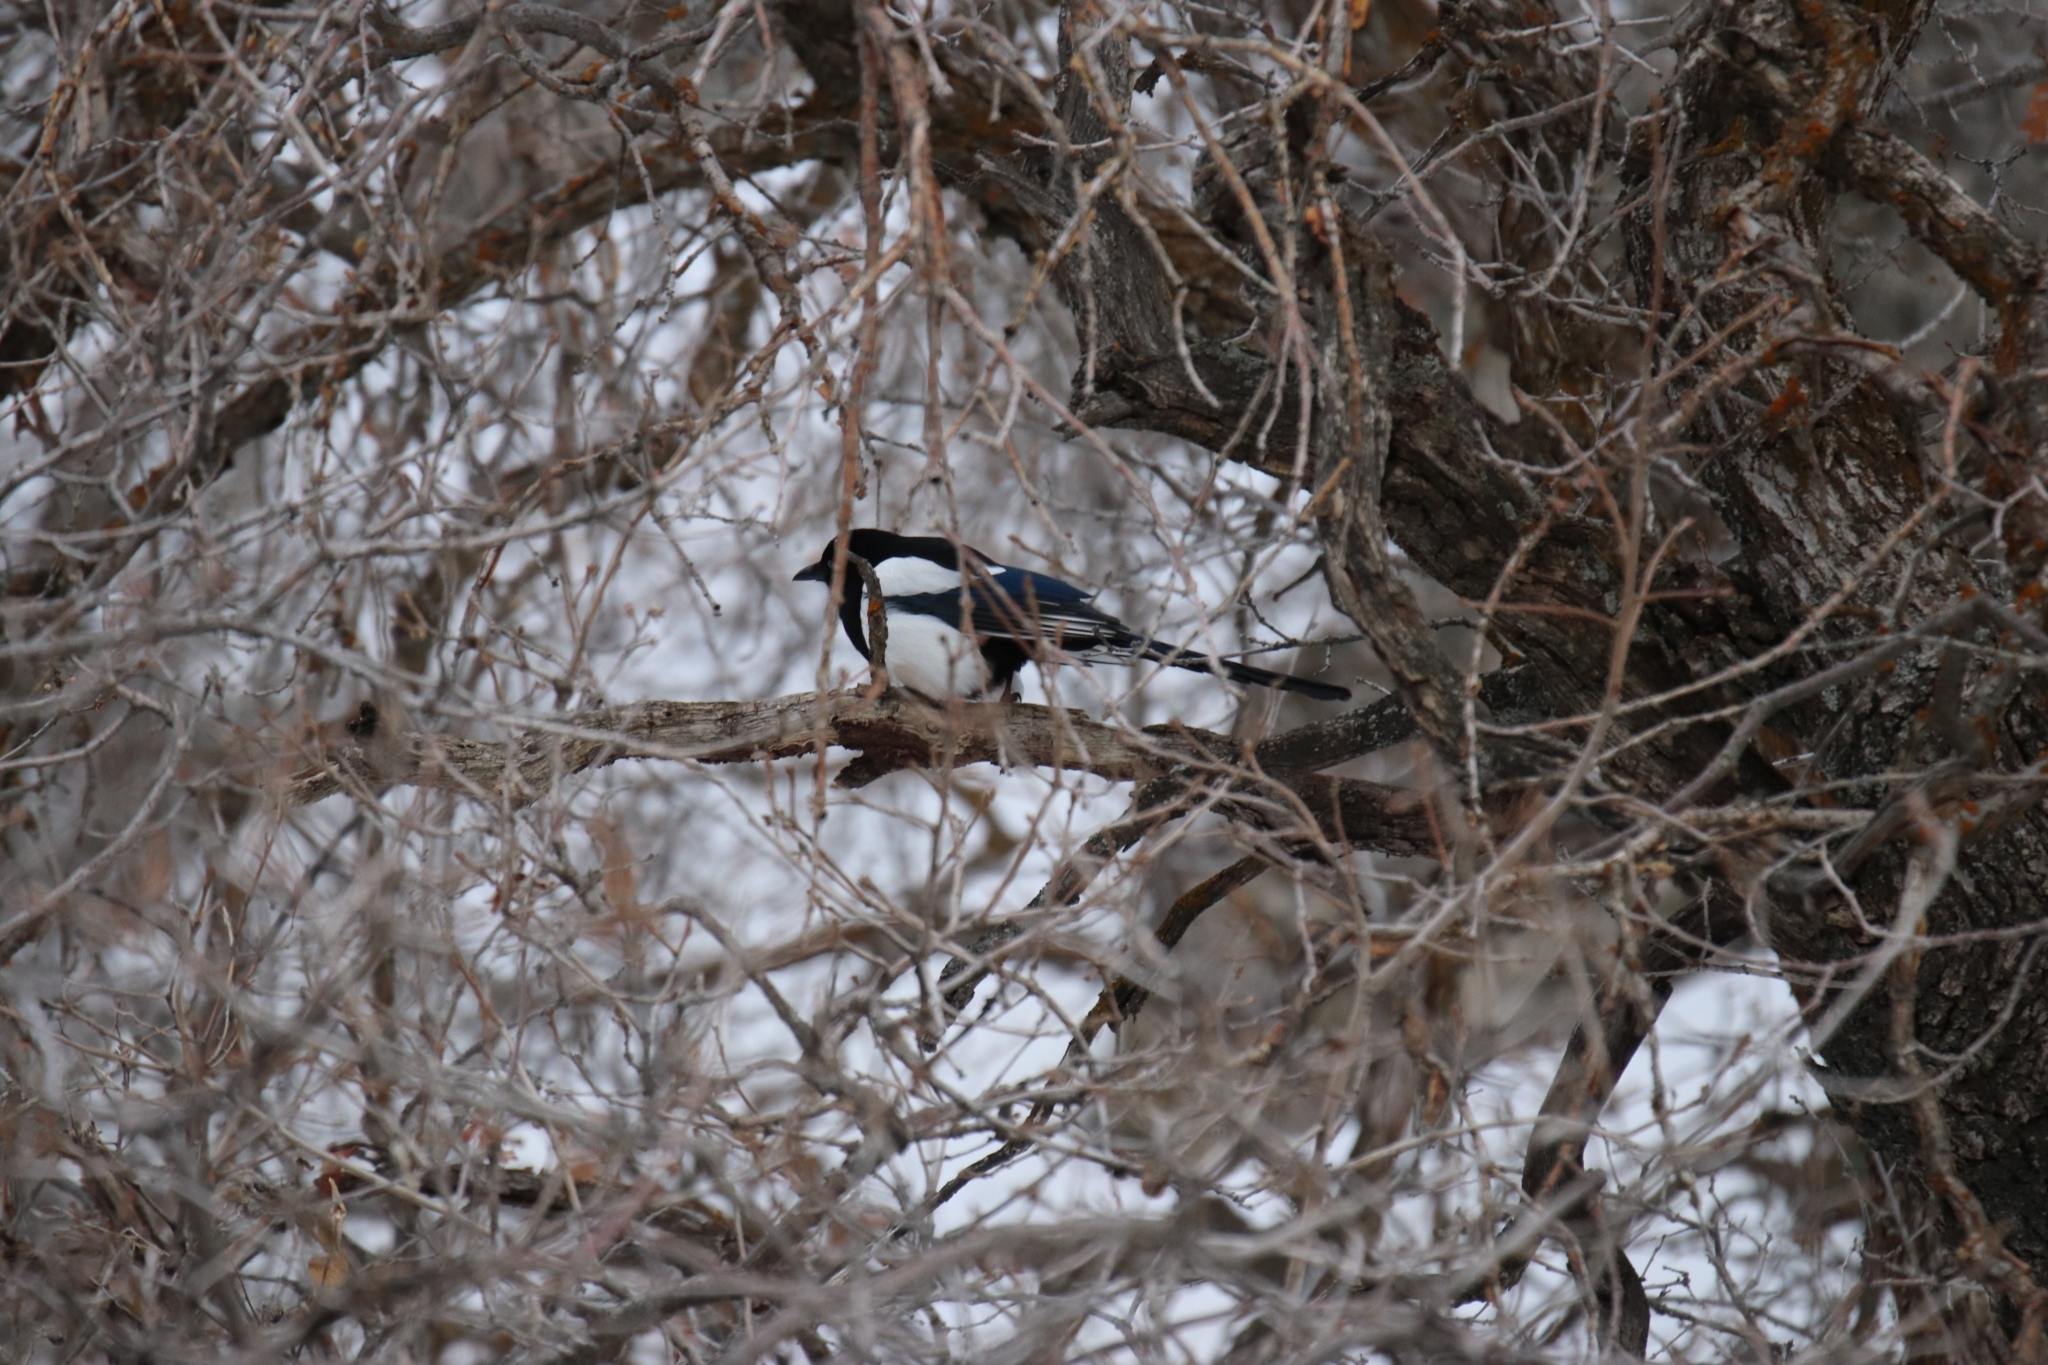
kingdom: Animalia
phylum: Chordata
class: Aves
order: Passeriformes
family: Corvidae
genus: Pica
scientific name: Pica hudsonia
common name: Black-billed magpie
